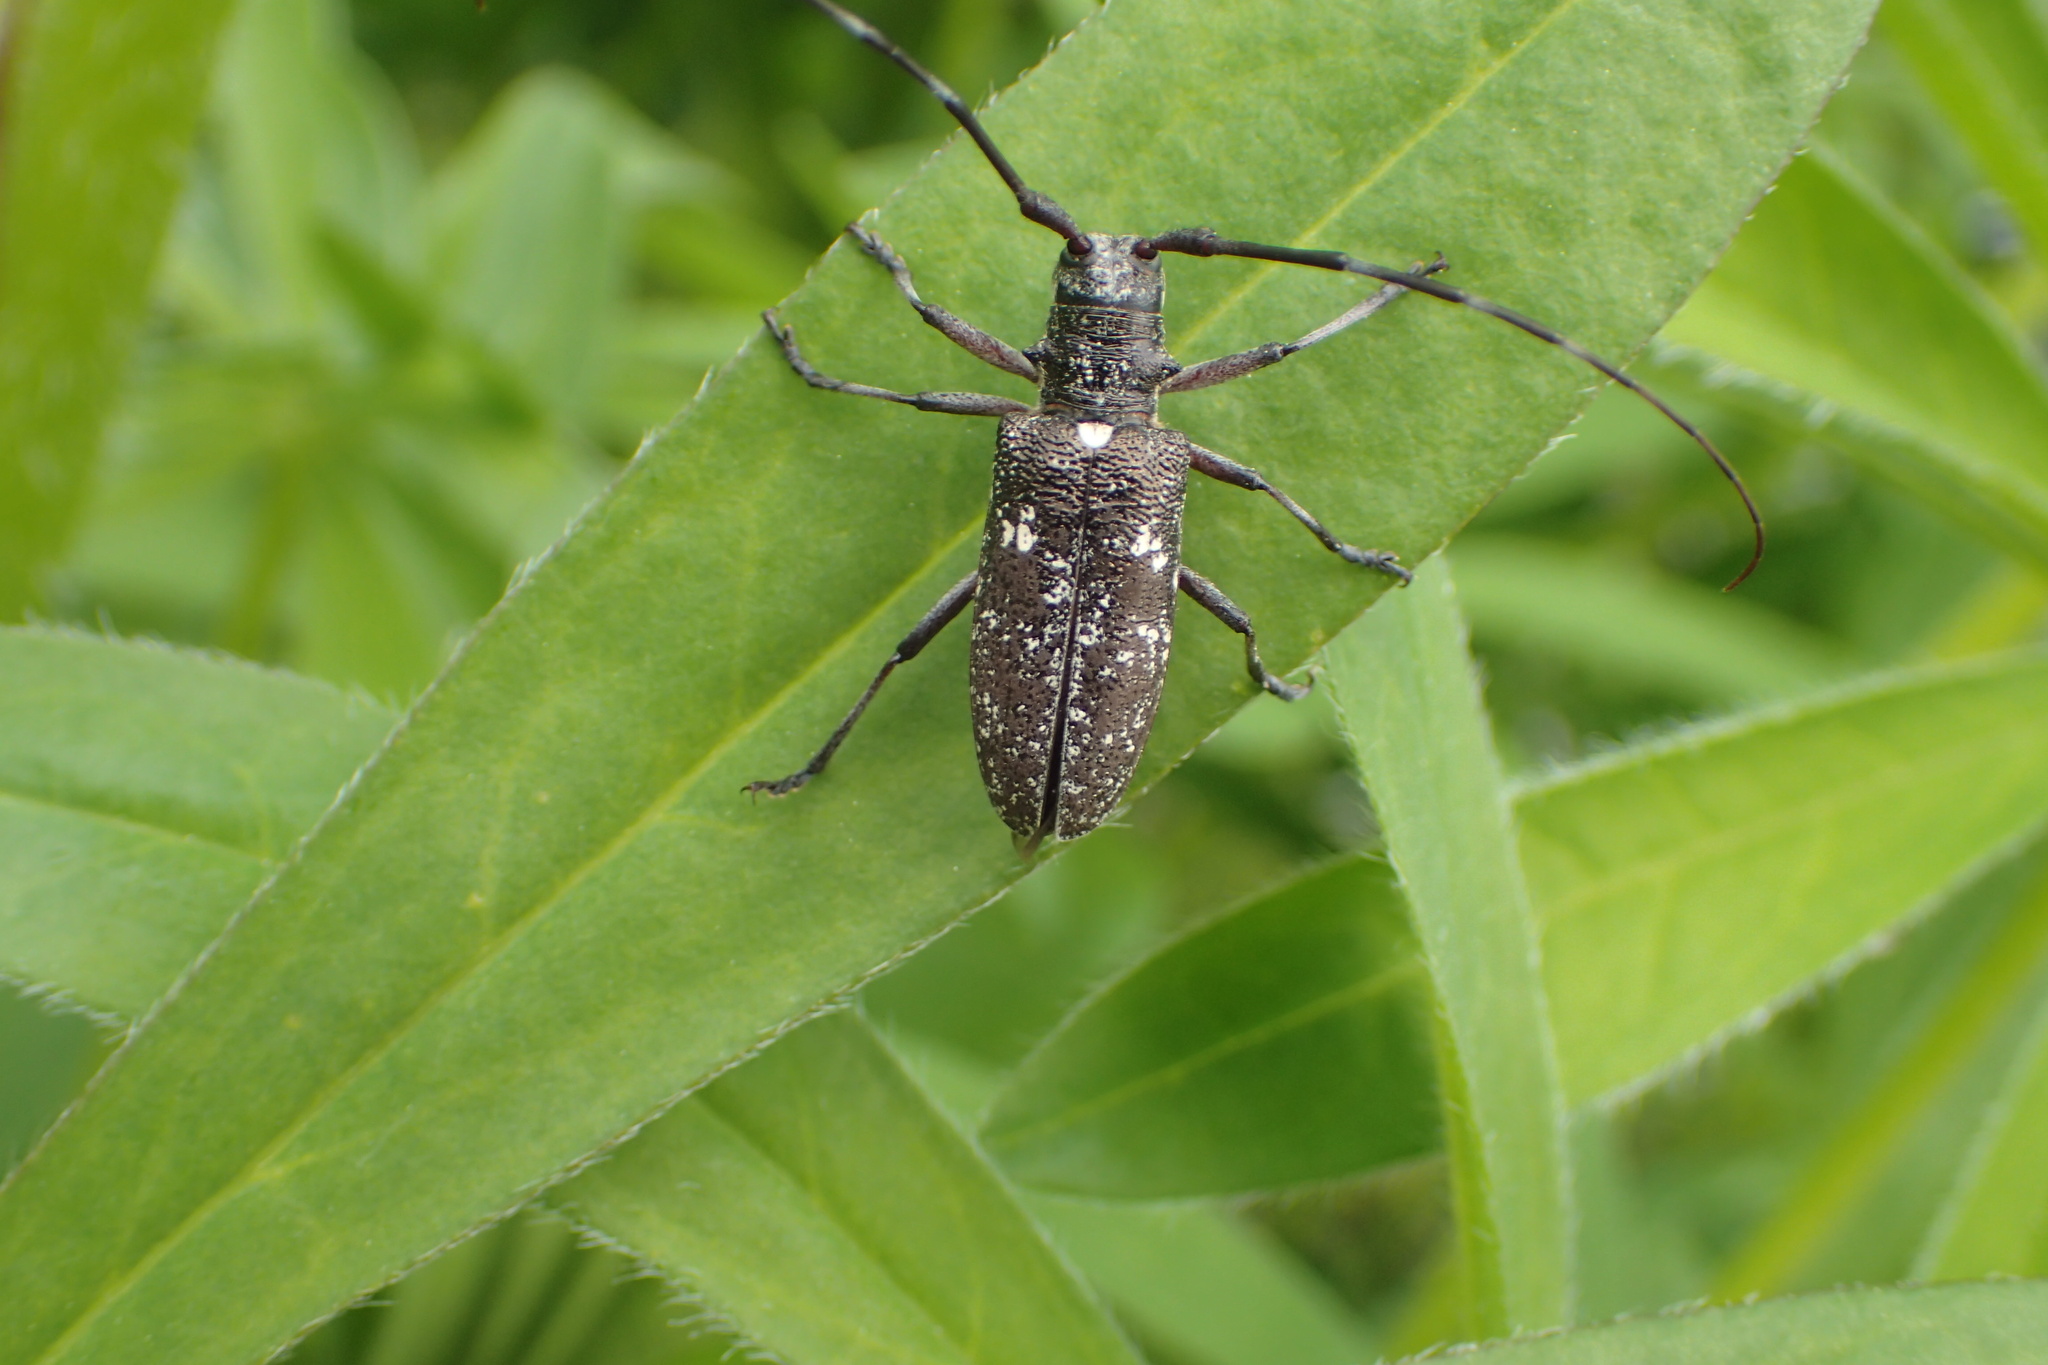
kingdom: Animalia
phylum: Arthropoda
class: Insecta
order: Coleoptera
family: Cerambycidae
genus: Monochamus
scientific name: Monochamus scutellatus
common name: White-spotted sawyer beetle
